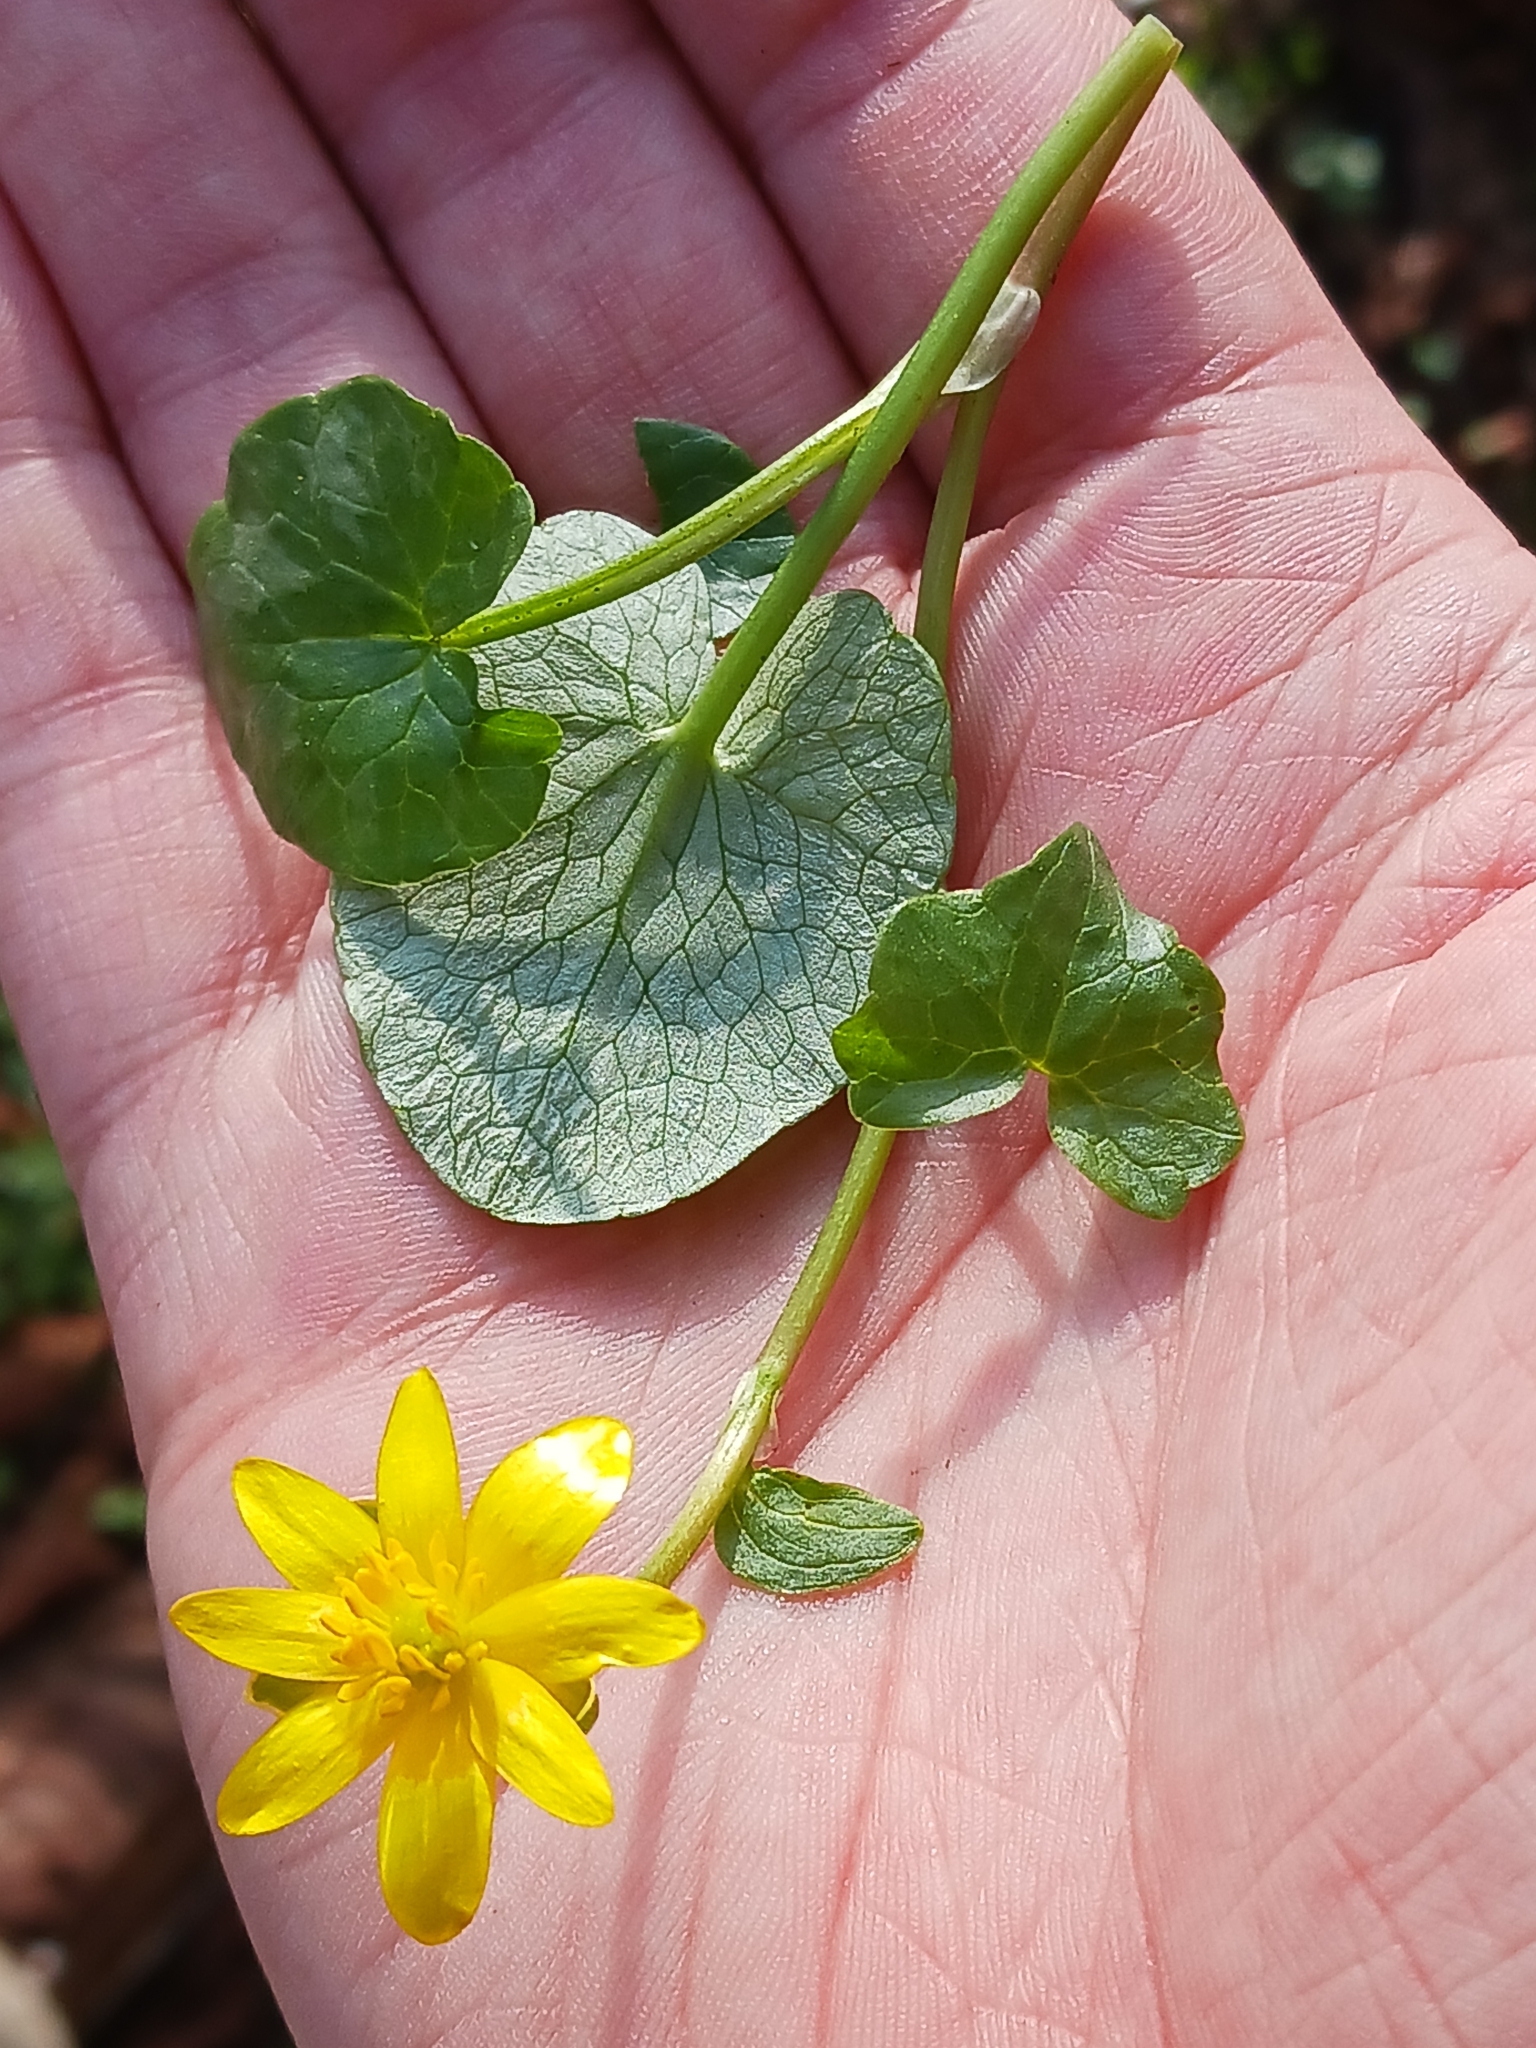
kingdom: Plantae
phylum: Tracheophyta
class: Magnoliopsida
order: Ranunculales
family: Ranunculaceae
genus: Ficaria
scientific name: Ficaria verna
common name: Lesser celandine
